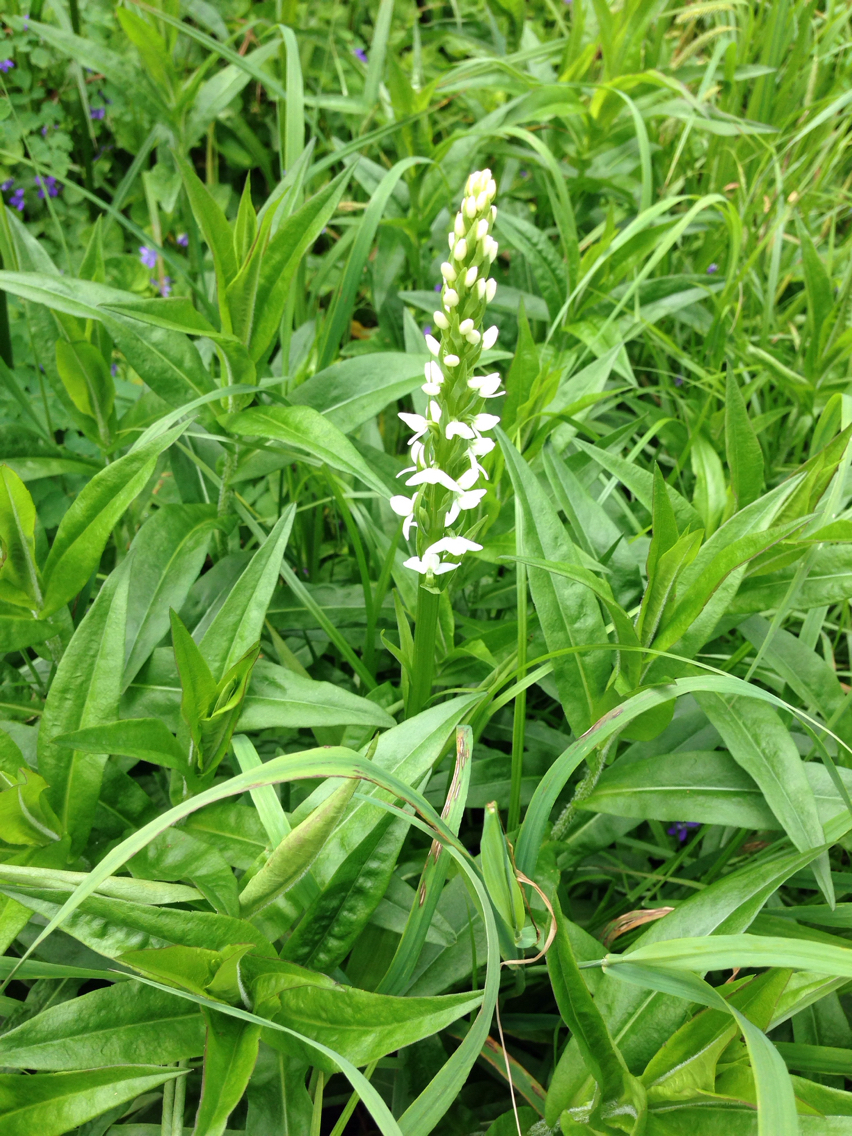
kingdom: Plantae
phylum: Tracheophyta
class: Liliopsida
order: Asparagales
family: Orchidaceae
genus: Platanthera
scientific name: Platanthera dilatata
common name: Bog candles
